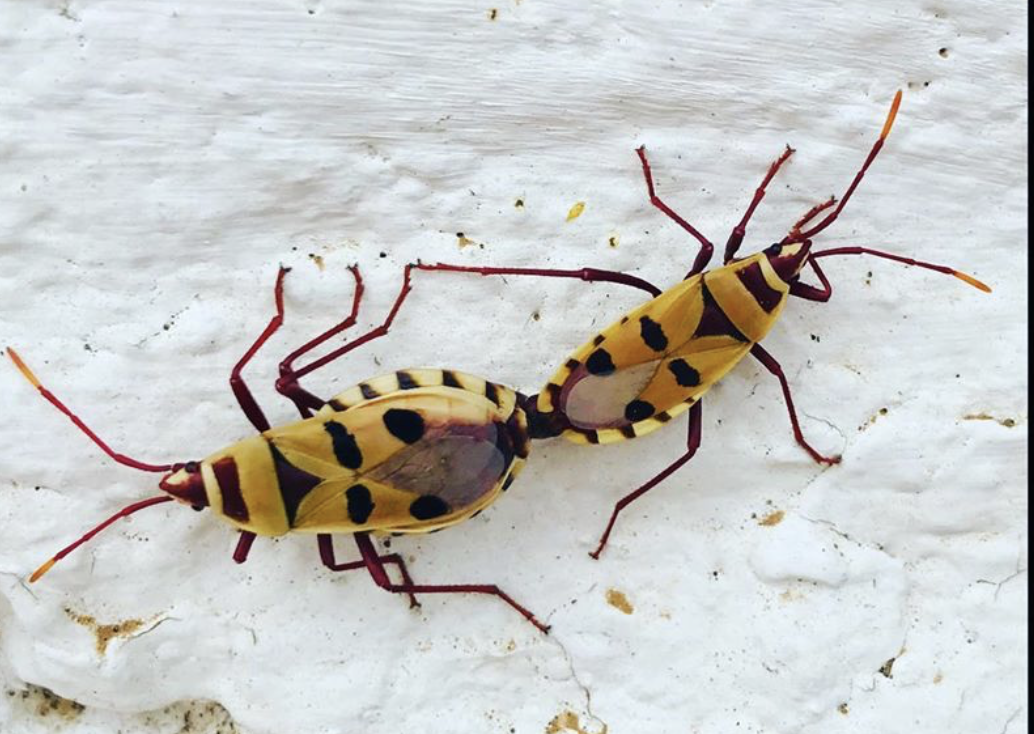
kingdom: Animalia
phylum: Arthropoda
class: Insecta
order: Hemiptera
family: Pyrrhocoridae
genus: Probergrothius
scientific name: Probergrothius angolensis
